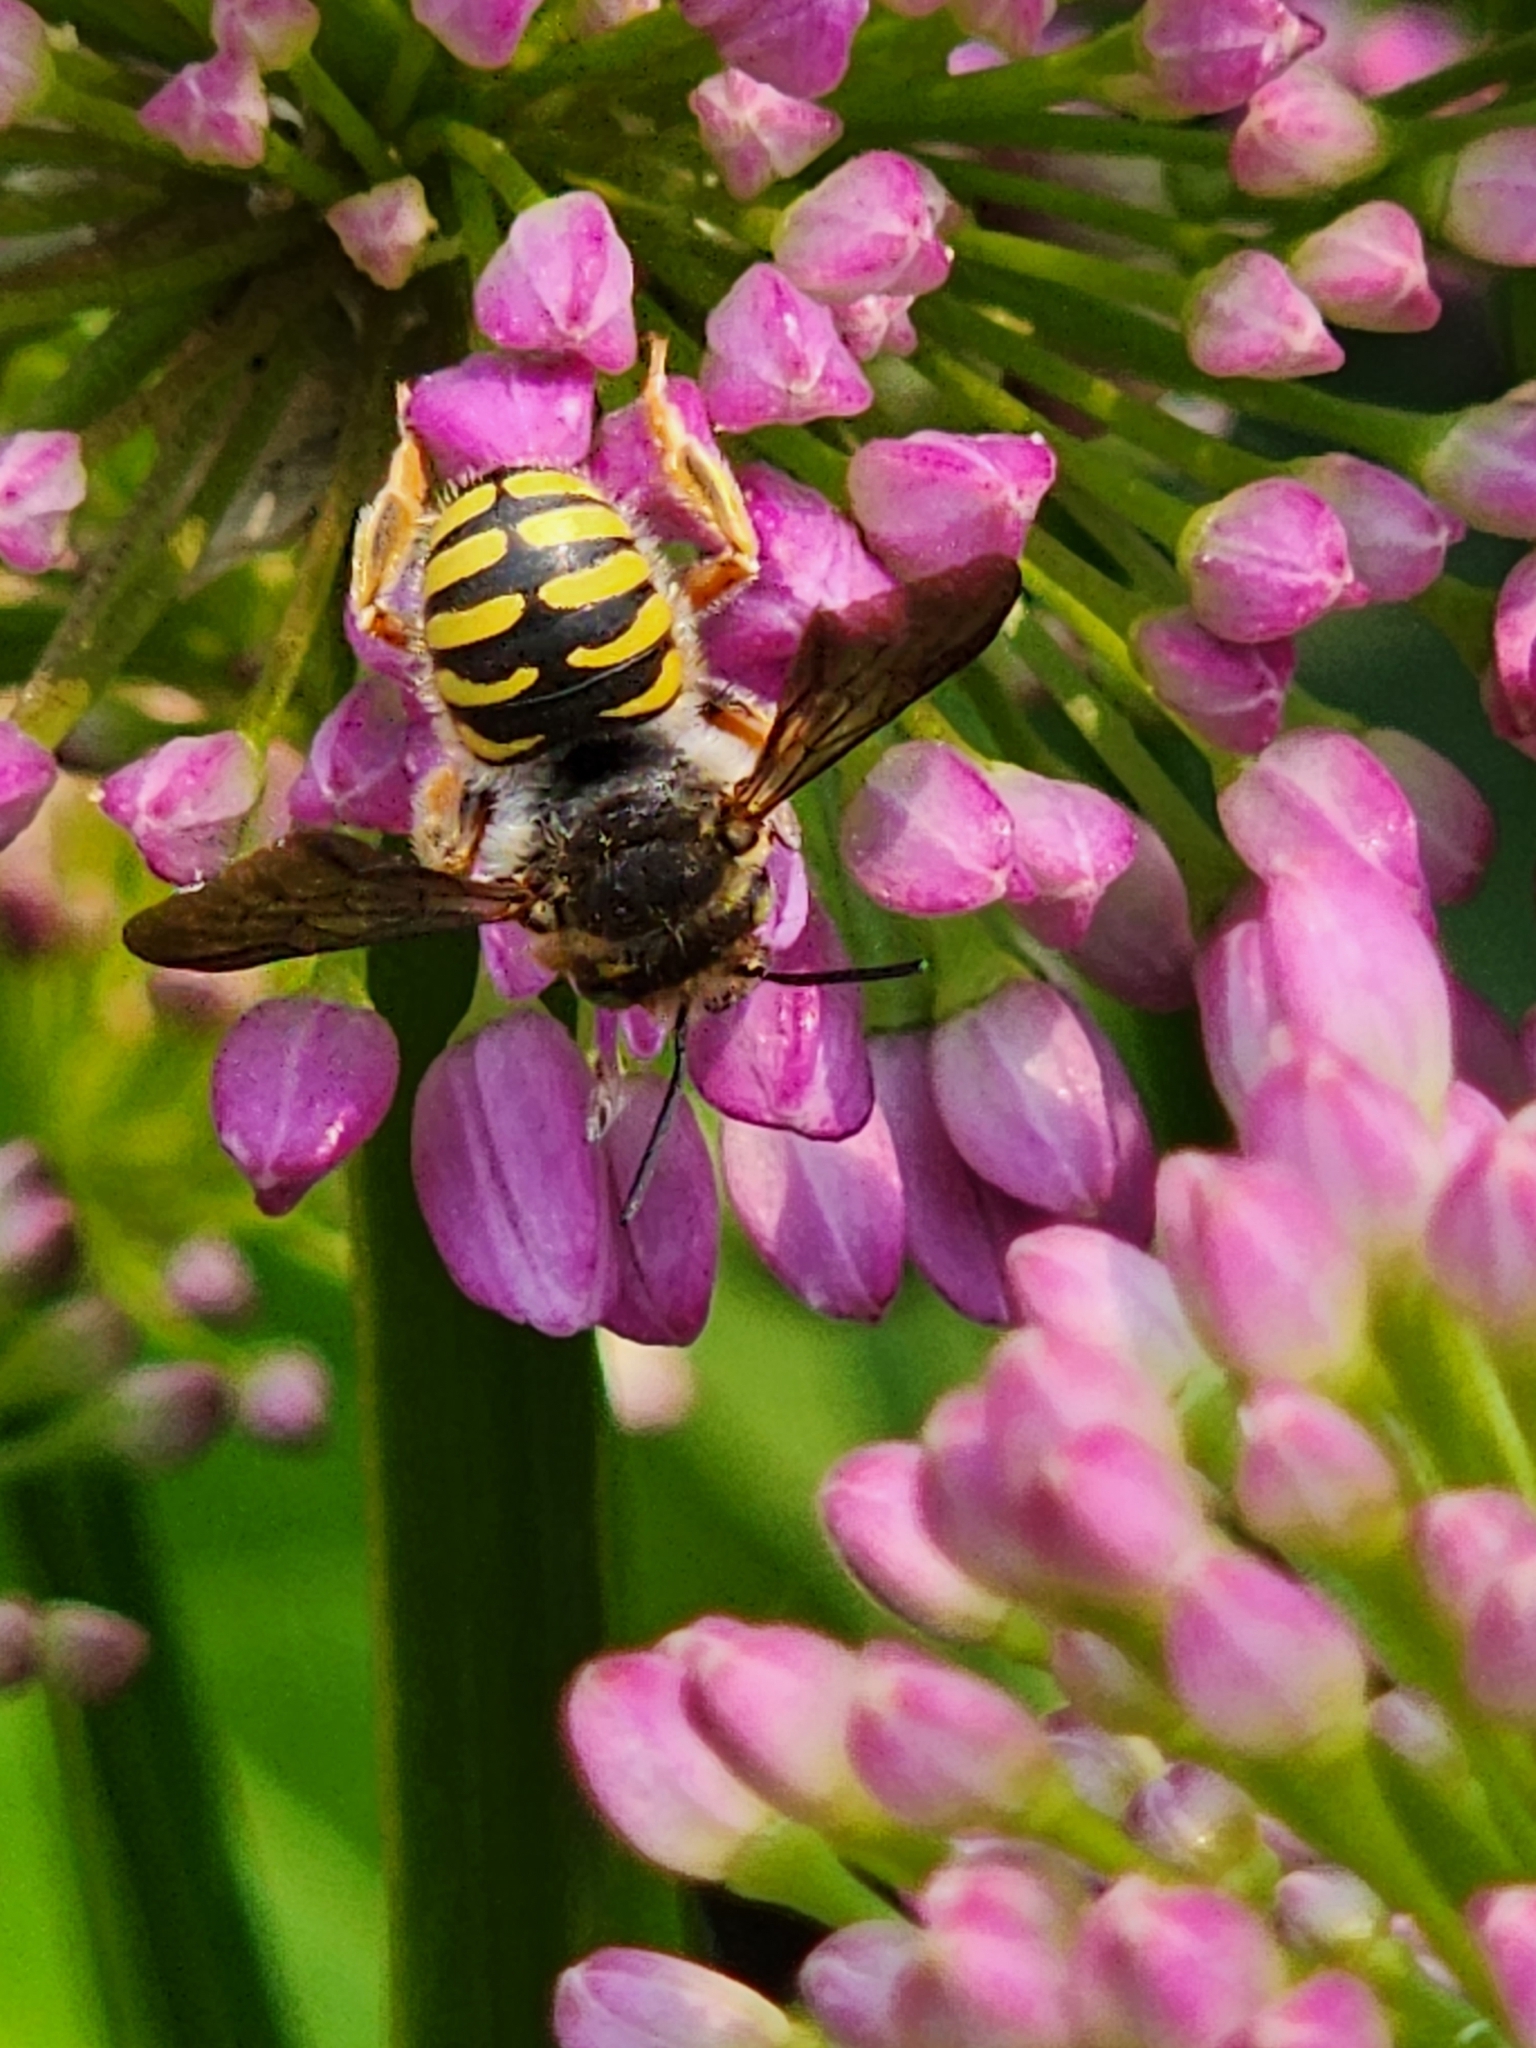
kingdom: Animalia
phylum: Arthropoda
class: Insecta
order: Hymenoptera
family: Megachilidae
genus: Anthidium
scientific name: Anthidium oblongatum
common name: Oblong wool carder bee
